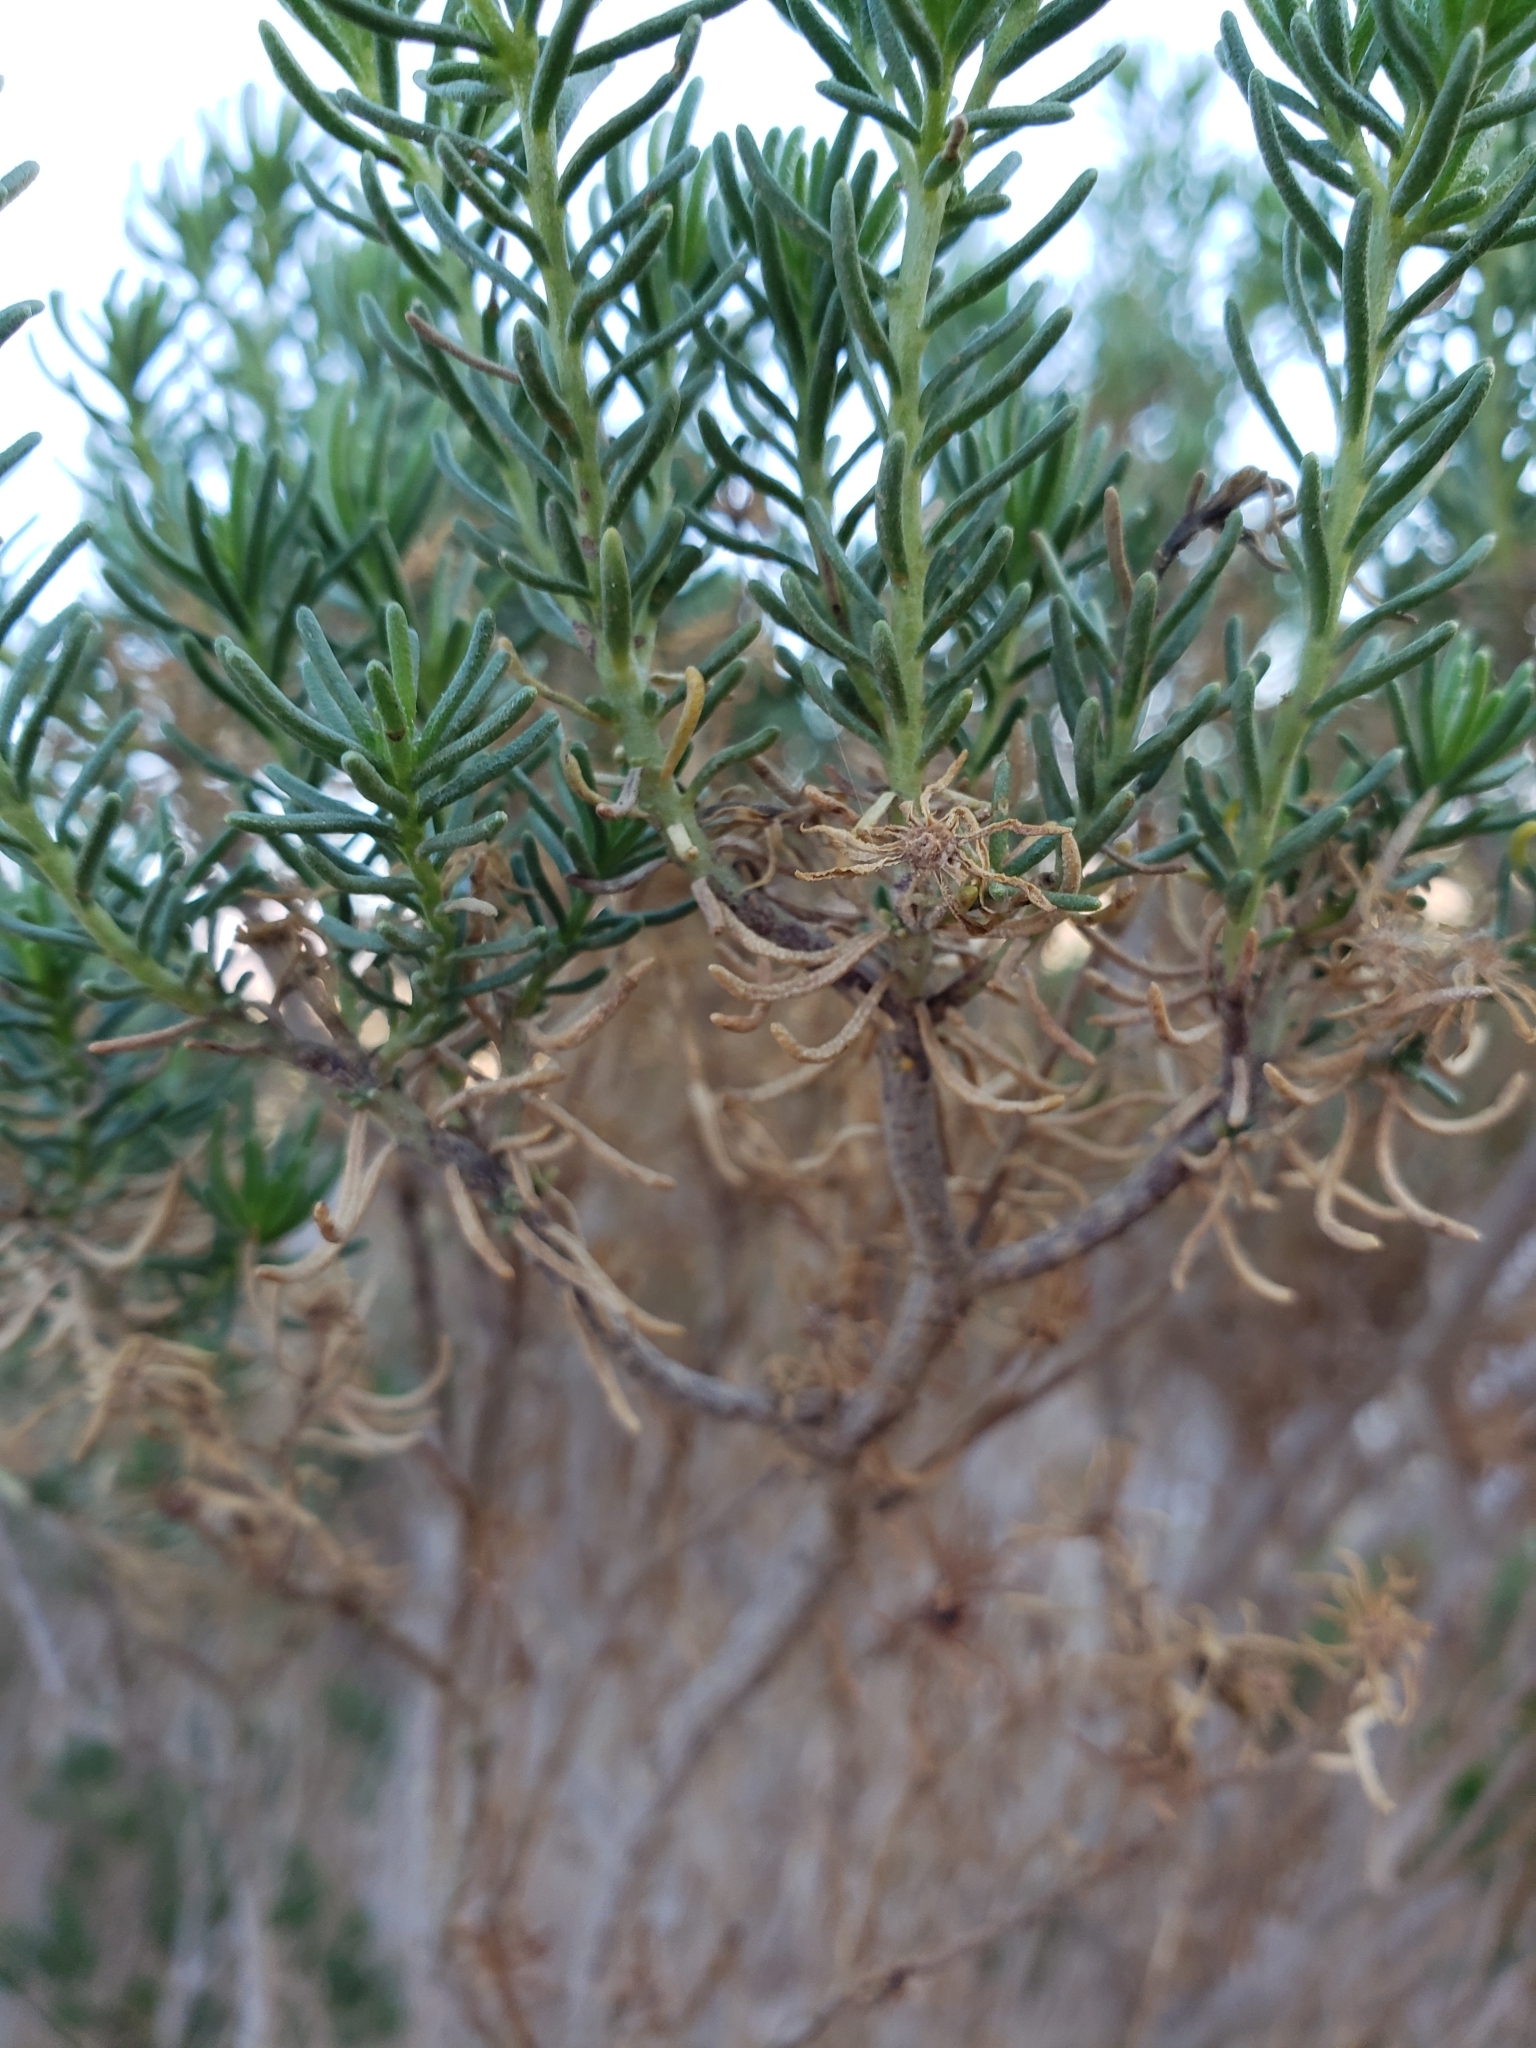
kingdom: Plantae
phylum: Tracheophyta
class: Magnoliopsida
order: Asterales
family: Asteraceae
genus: Peucephyllum
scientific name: Peucephyllum schottii
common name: Pygmy-cedar
